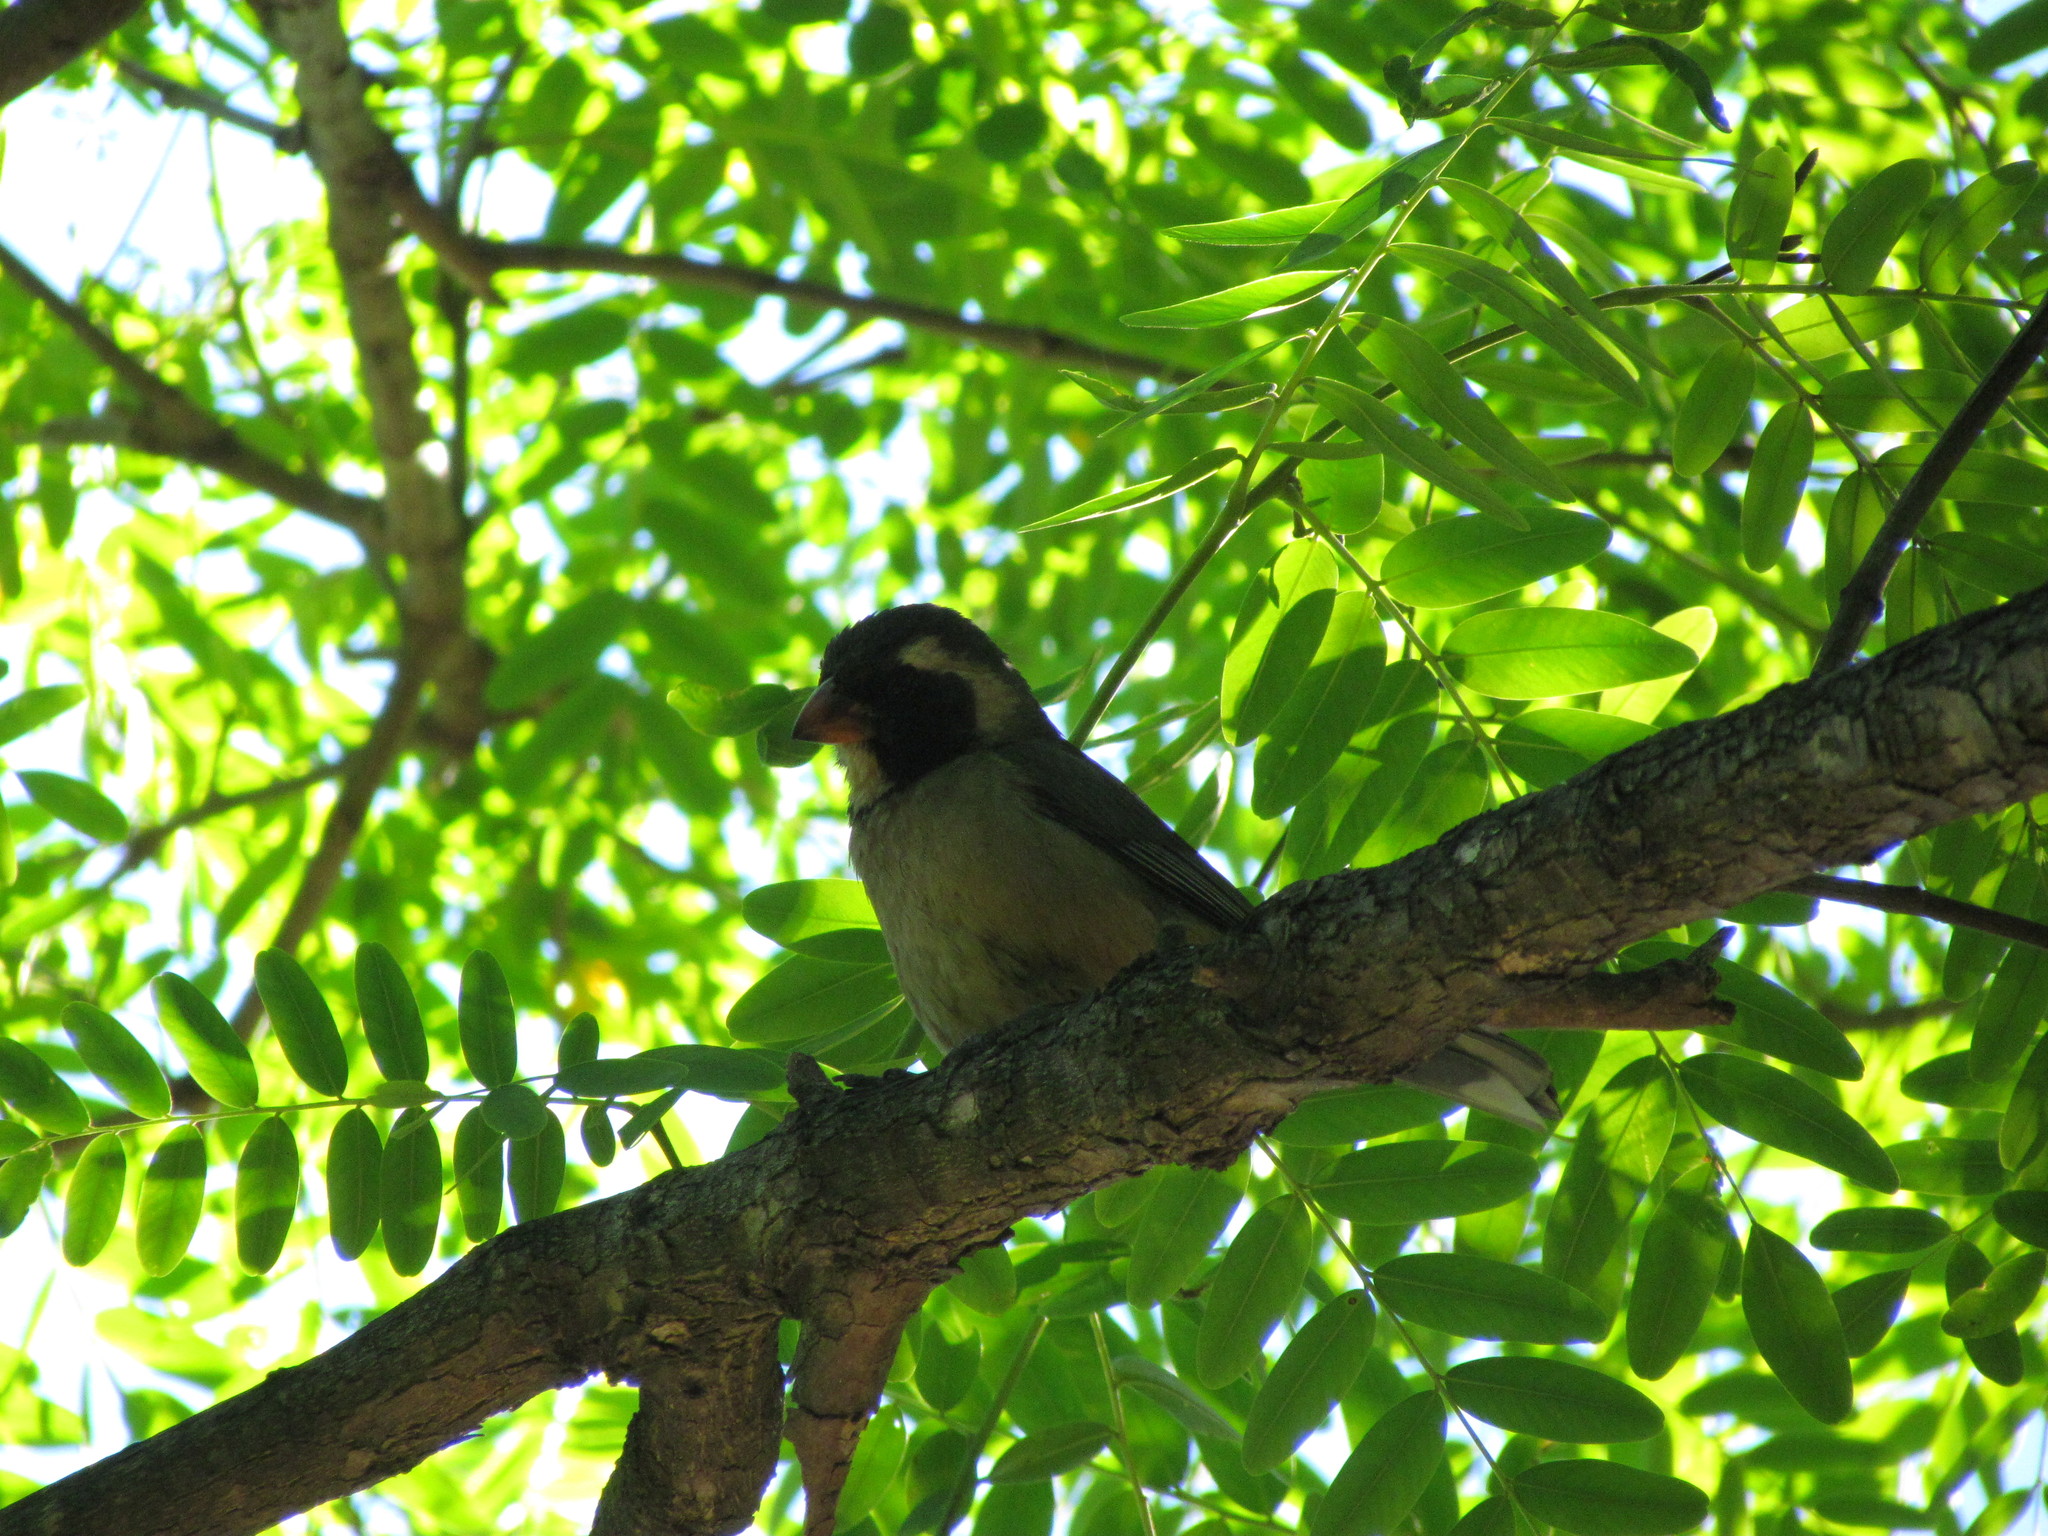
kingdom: Animalia
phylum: Chordata
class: Aves
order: Passeriformes
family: Thraupidae
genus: Saltator
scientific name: Saltator aurantiirostris
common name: Golden-billed saltator
